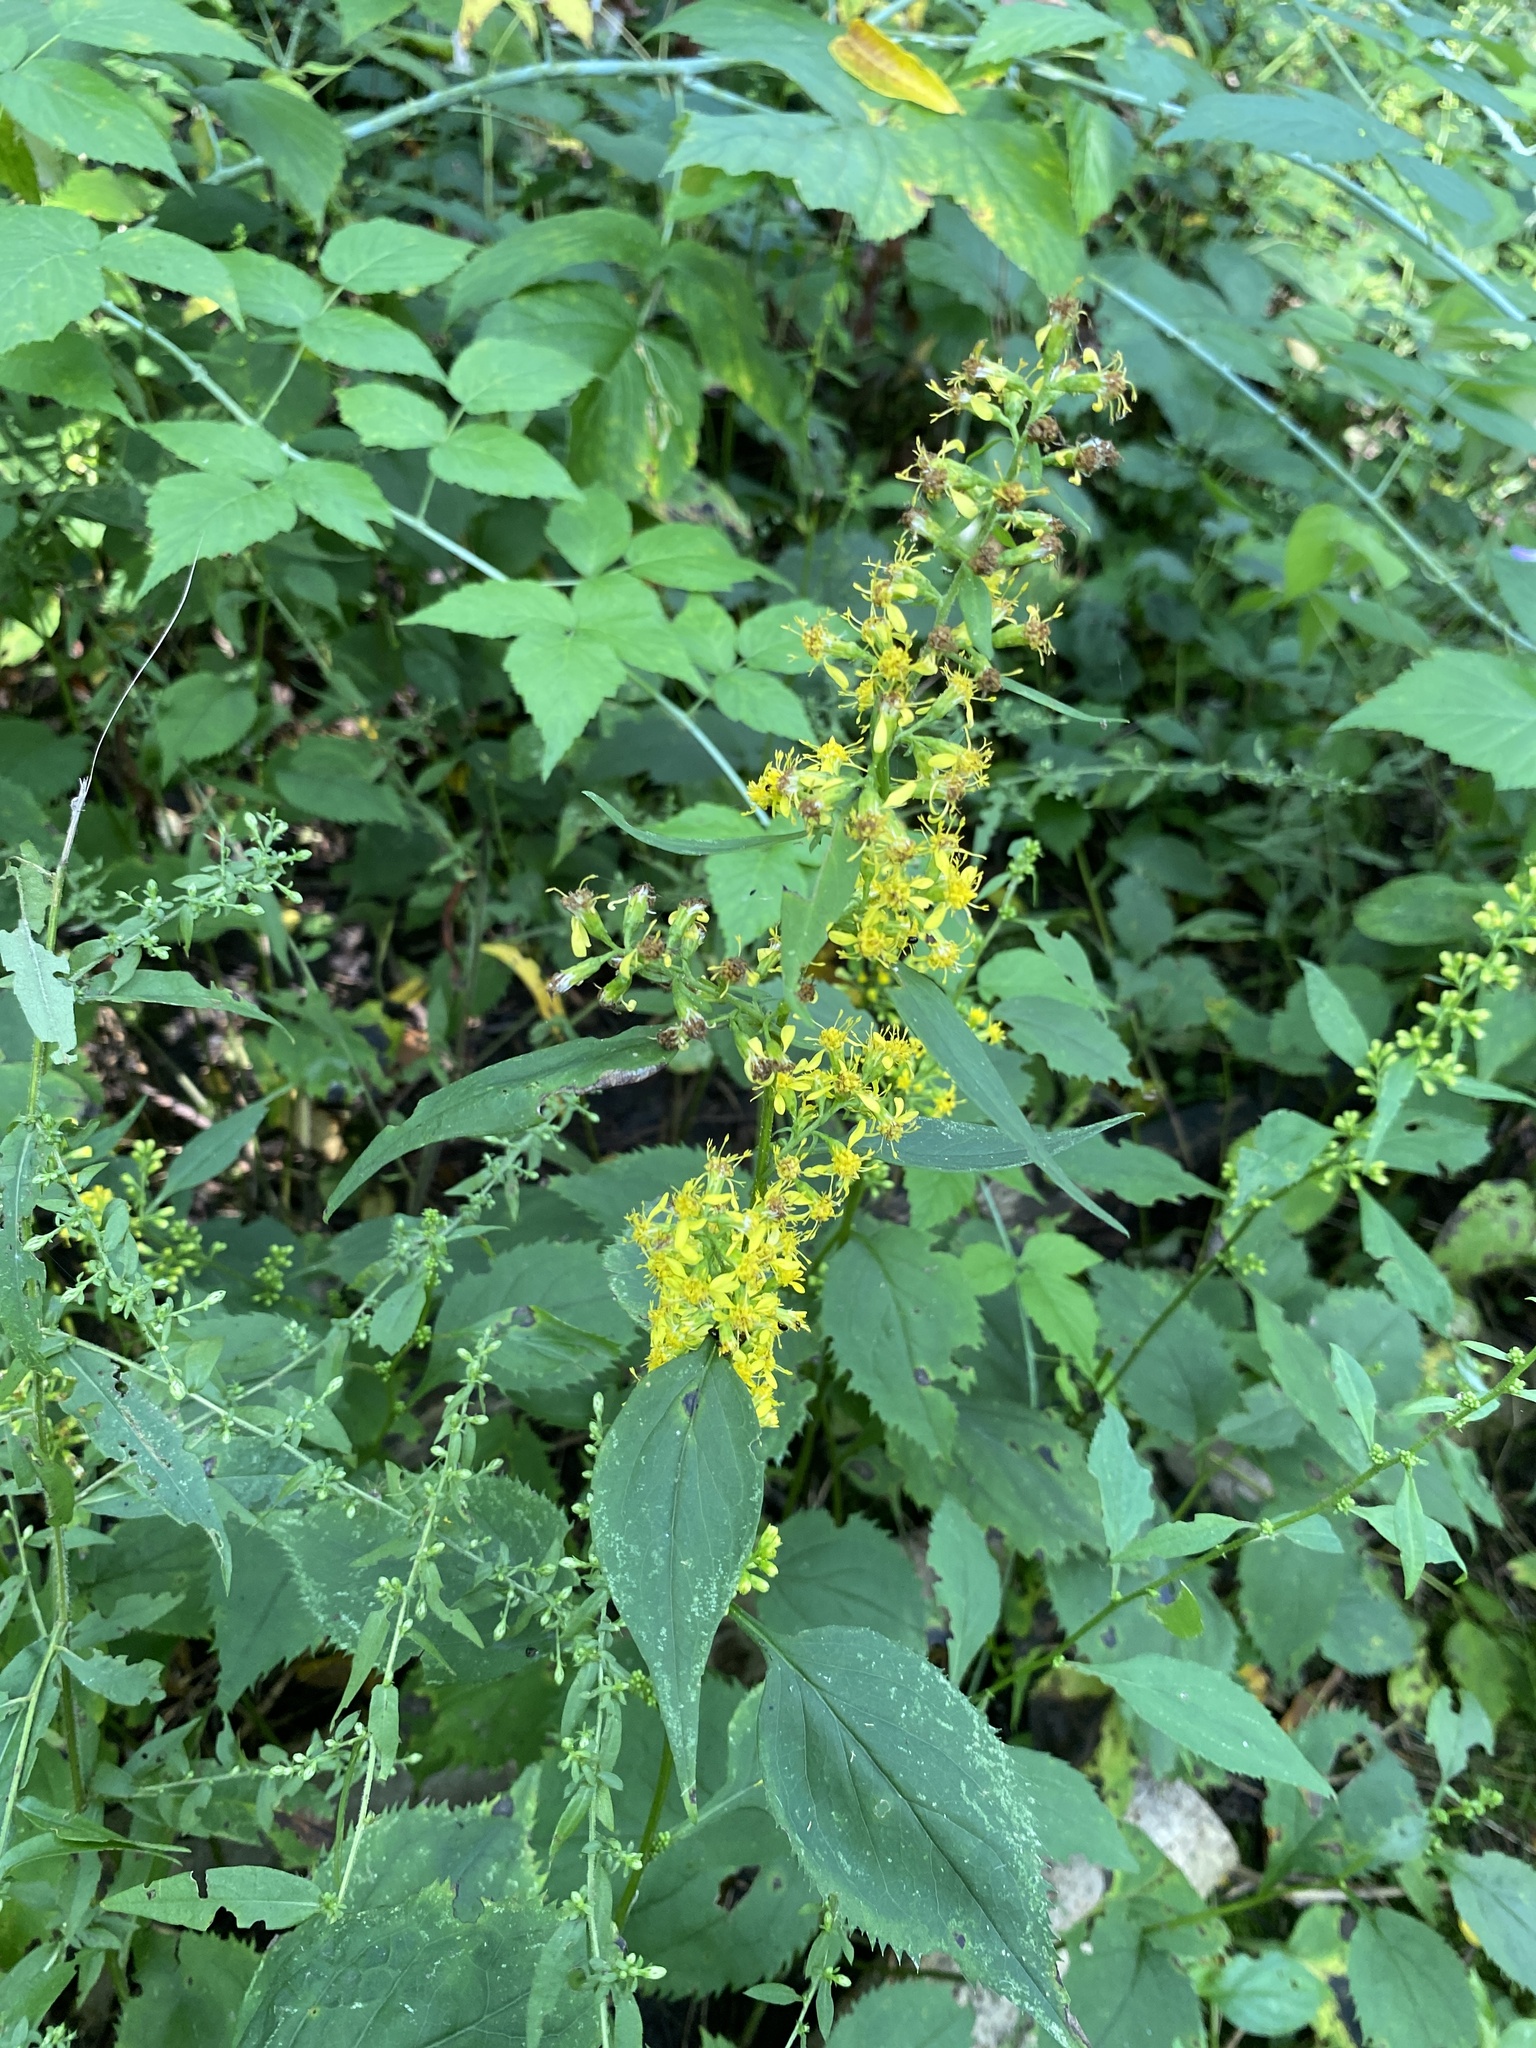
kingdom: Plantae
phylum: Tracheophyta
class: Magnoliopsida
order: Asterales
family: Asteraceae
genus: Solidago
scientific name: Solidago flexicaulis
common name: Zig-zag goldenrod
